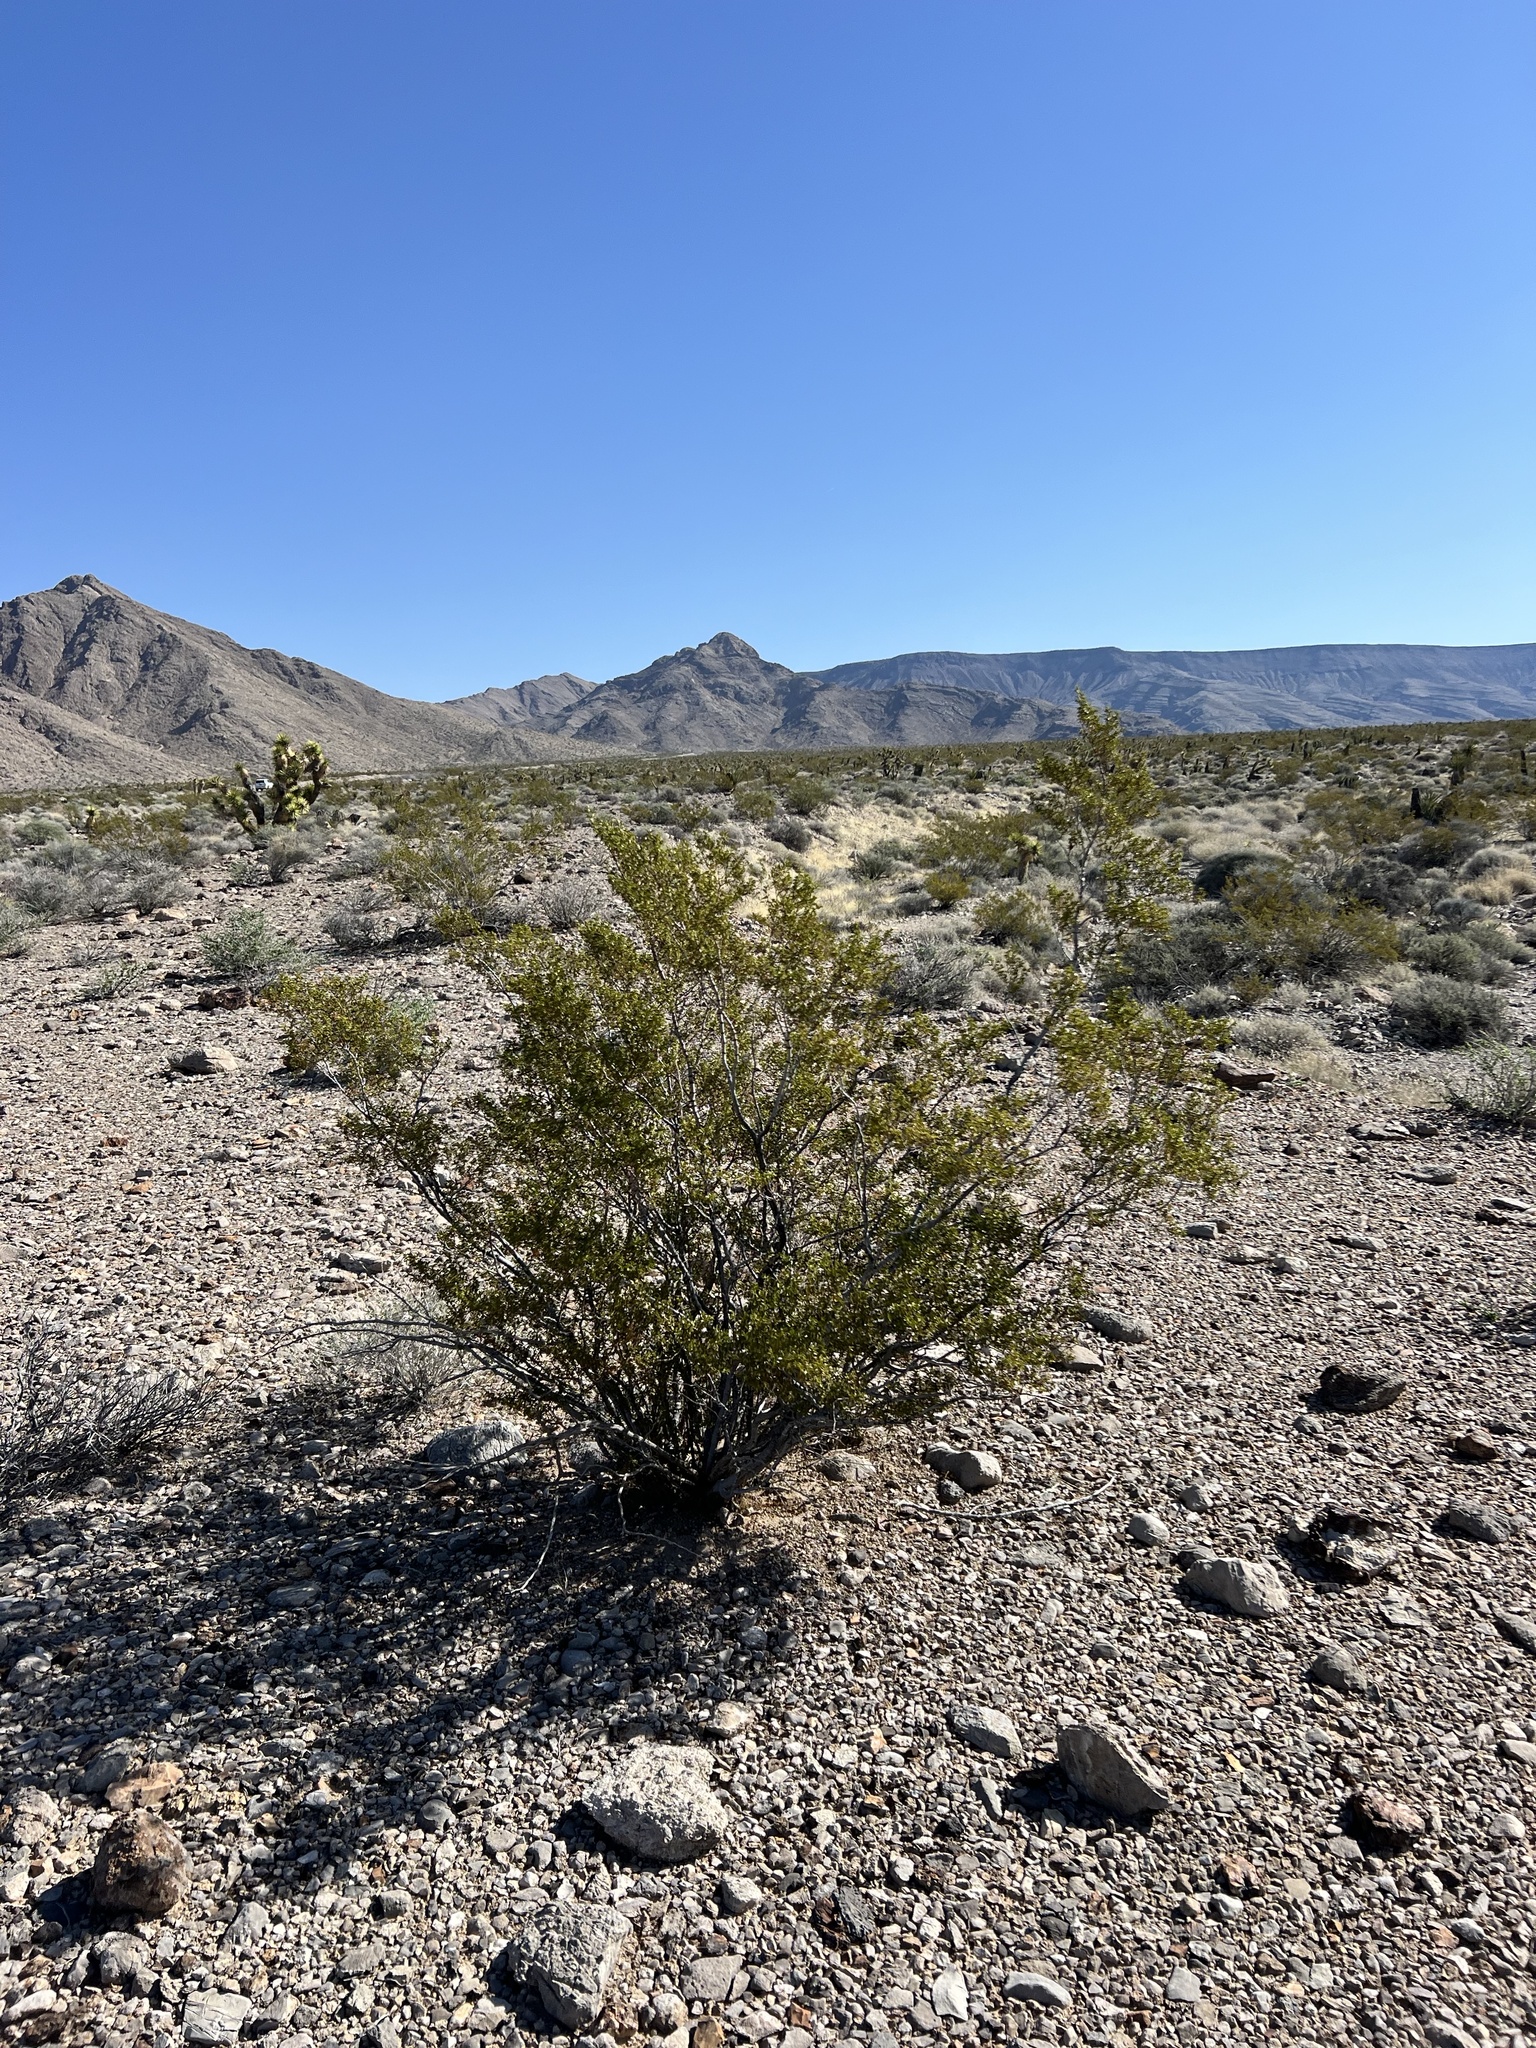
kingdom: Plantae
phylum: Tracheophyta
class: Magnoliopsida
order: Zygophyllales
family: Zygophyllaceae
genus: Larrea
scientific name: Larrea tridentata
